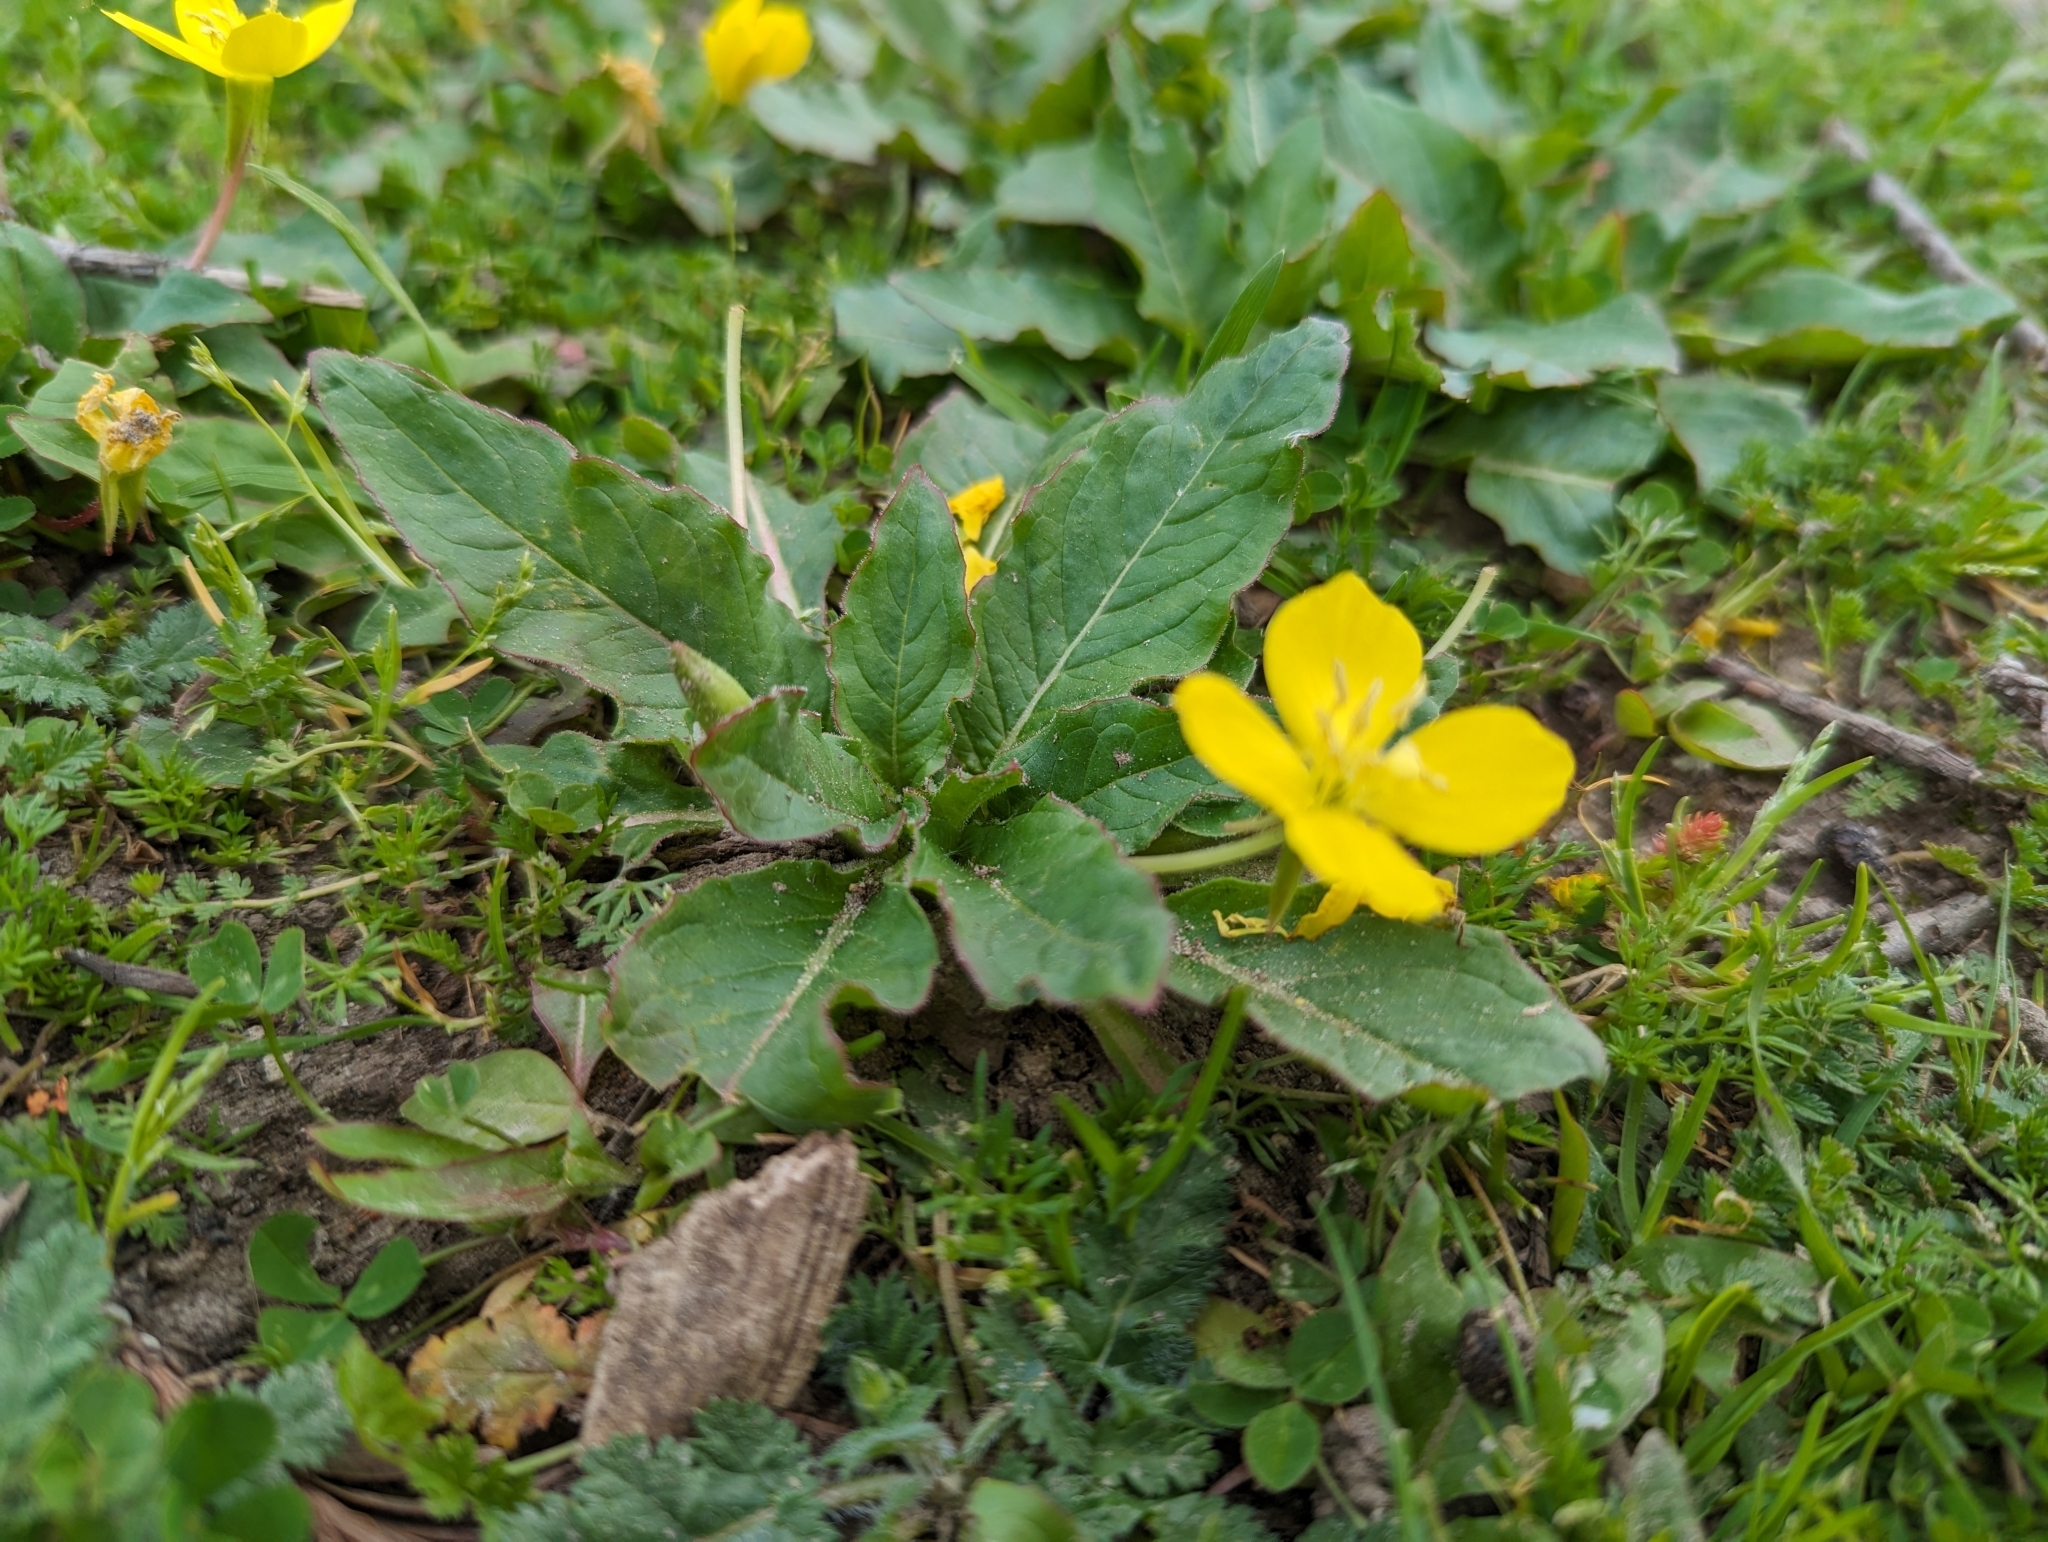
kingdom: Plantae
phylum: Tracheophyta
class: Magnoliopsida
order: Myrtales
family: Onagraceae
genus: Taraxia
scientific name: Taraxia ovata
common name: Goldeneggs
